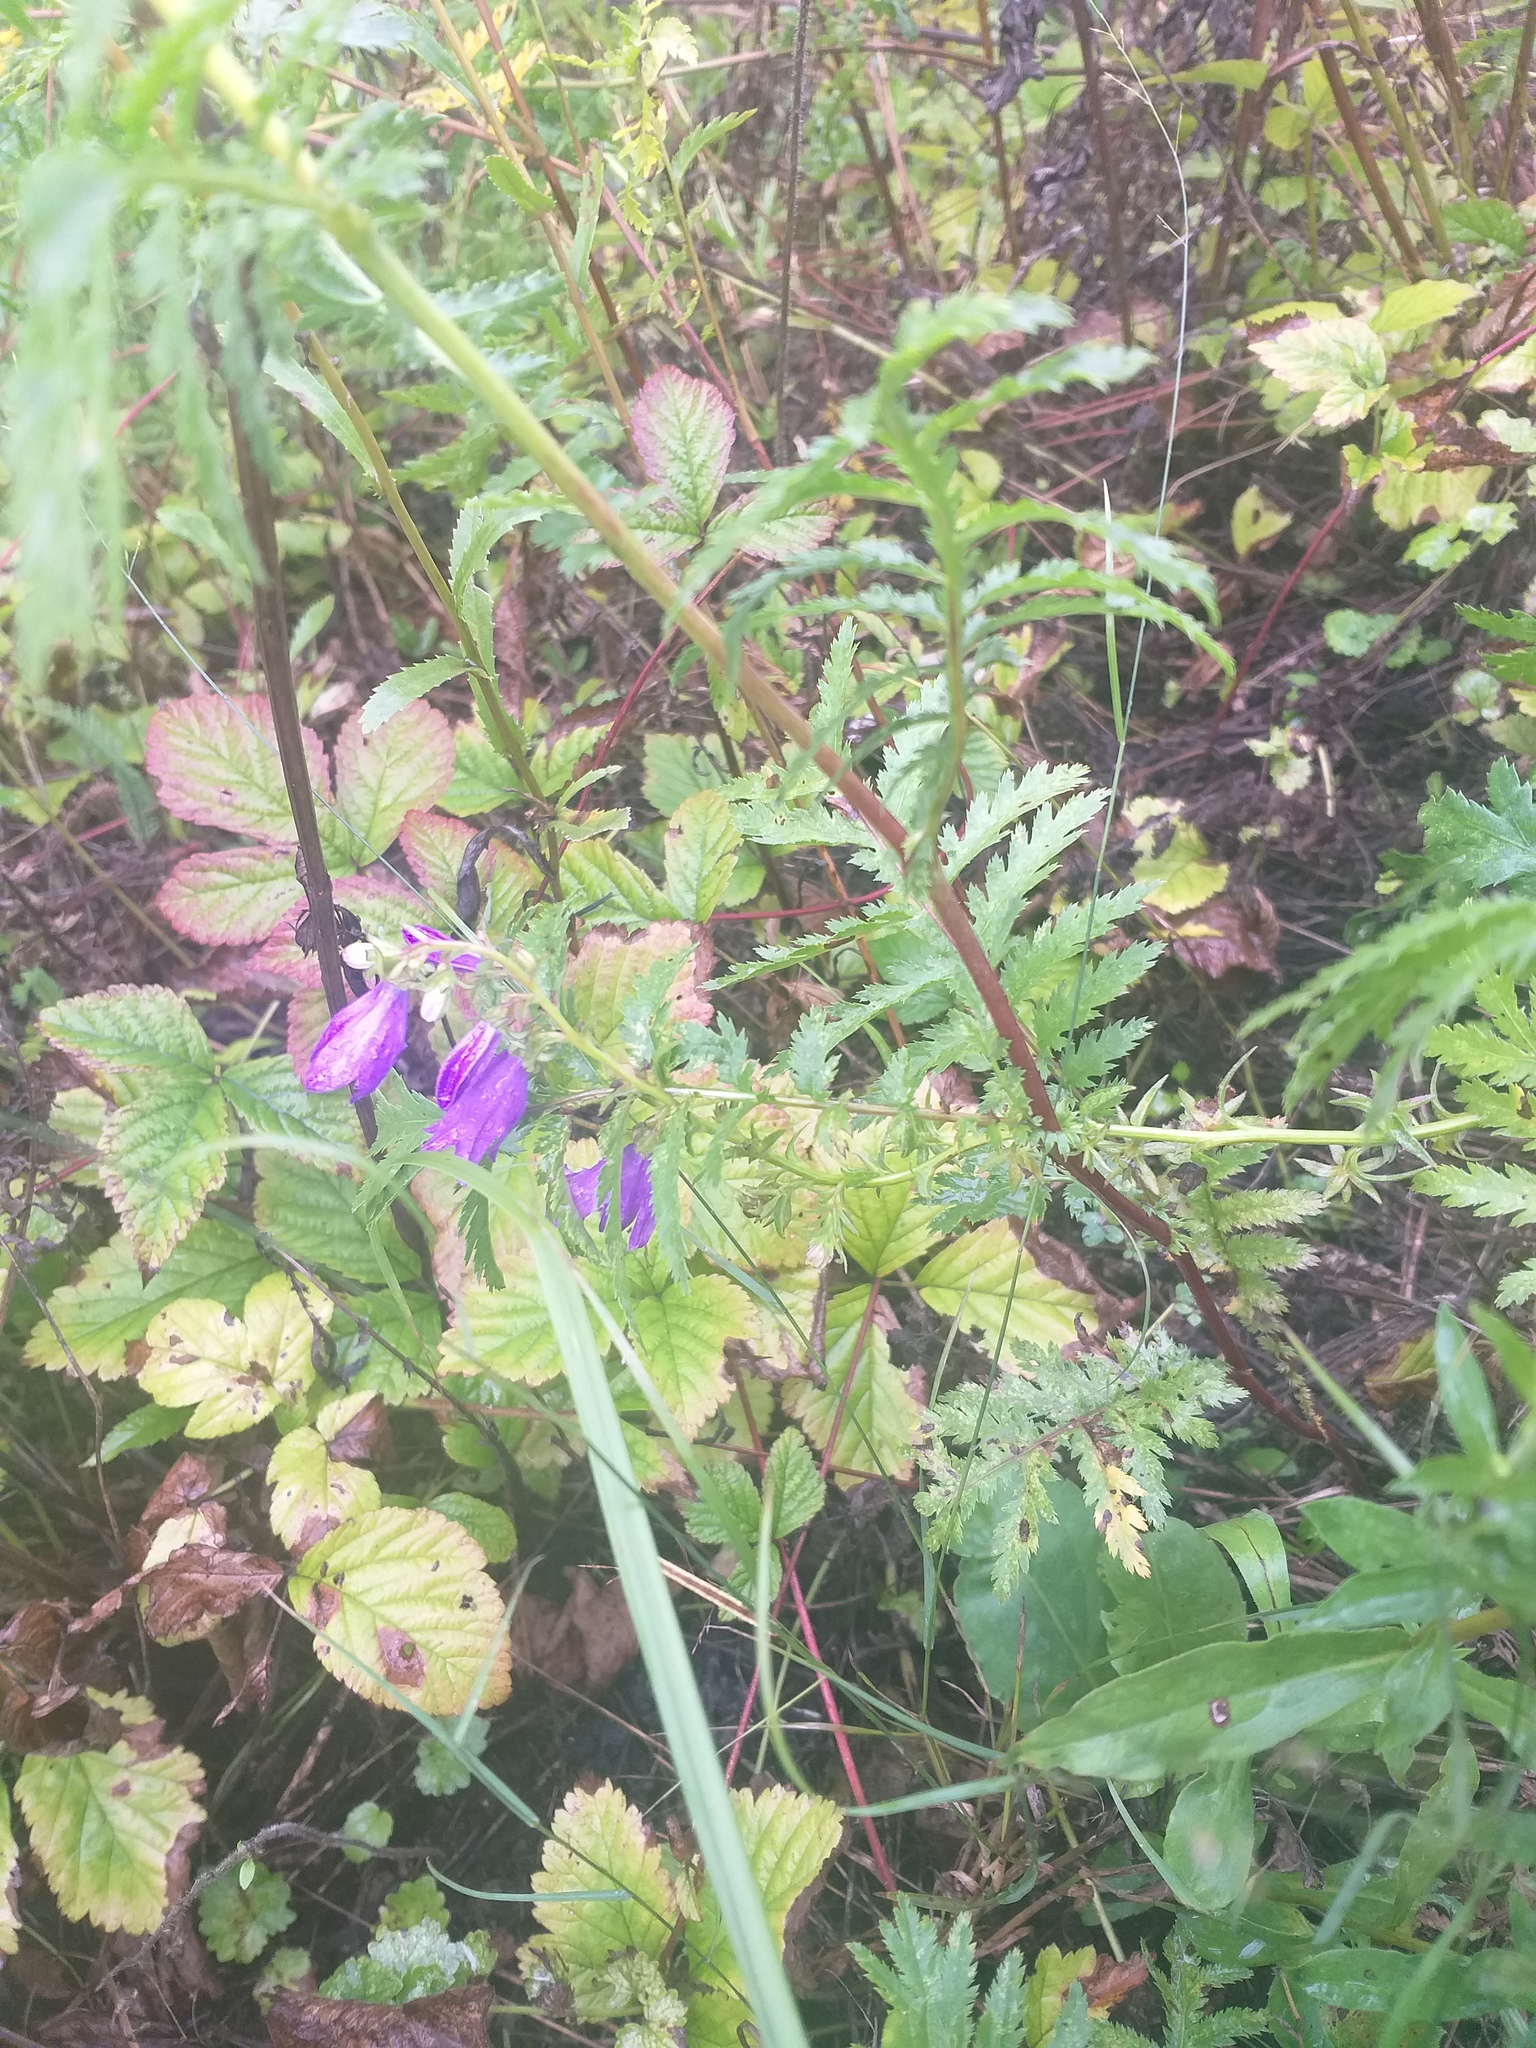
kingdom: Plantae
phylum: Tracheophyta
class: Magnoliopsida
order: Asterales
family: Campanulaceae
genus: Campanula
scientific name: Campanula rapunculoides
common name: Creeping bellflower
